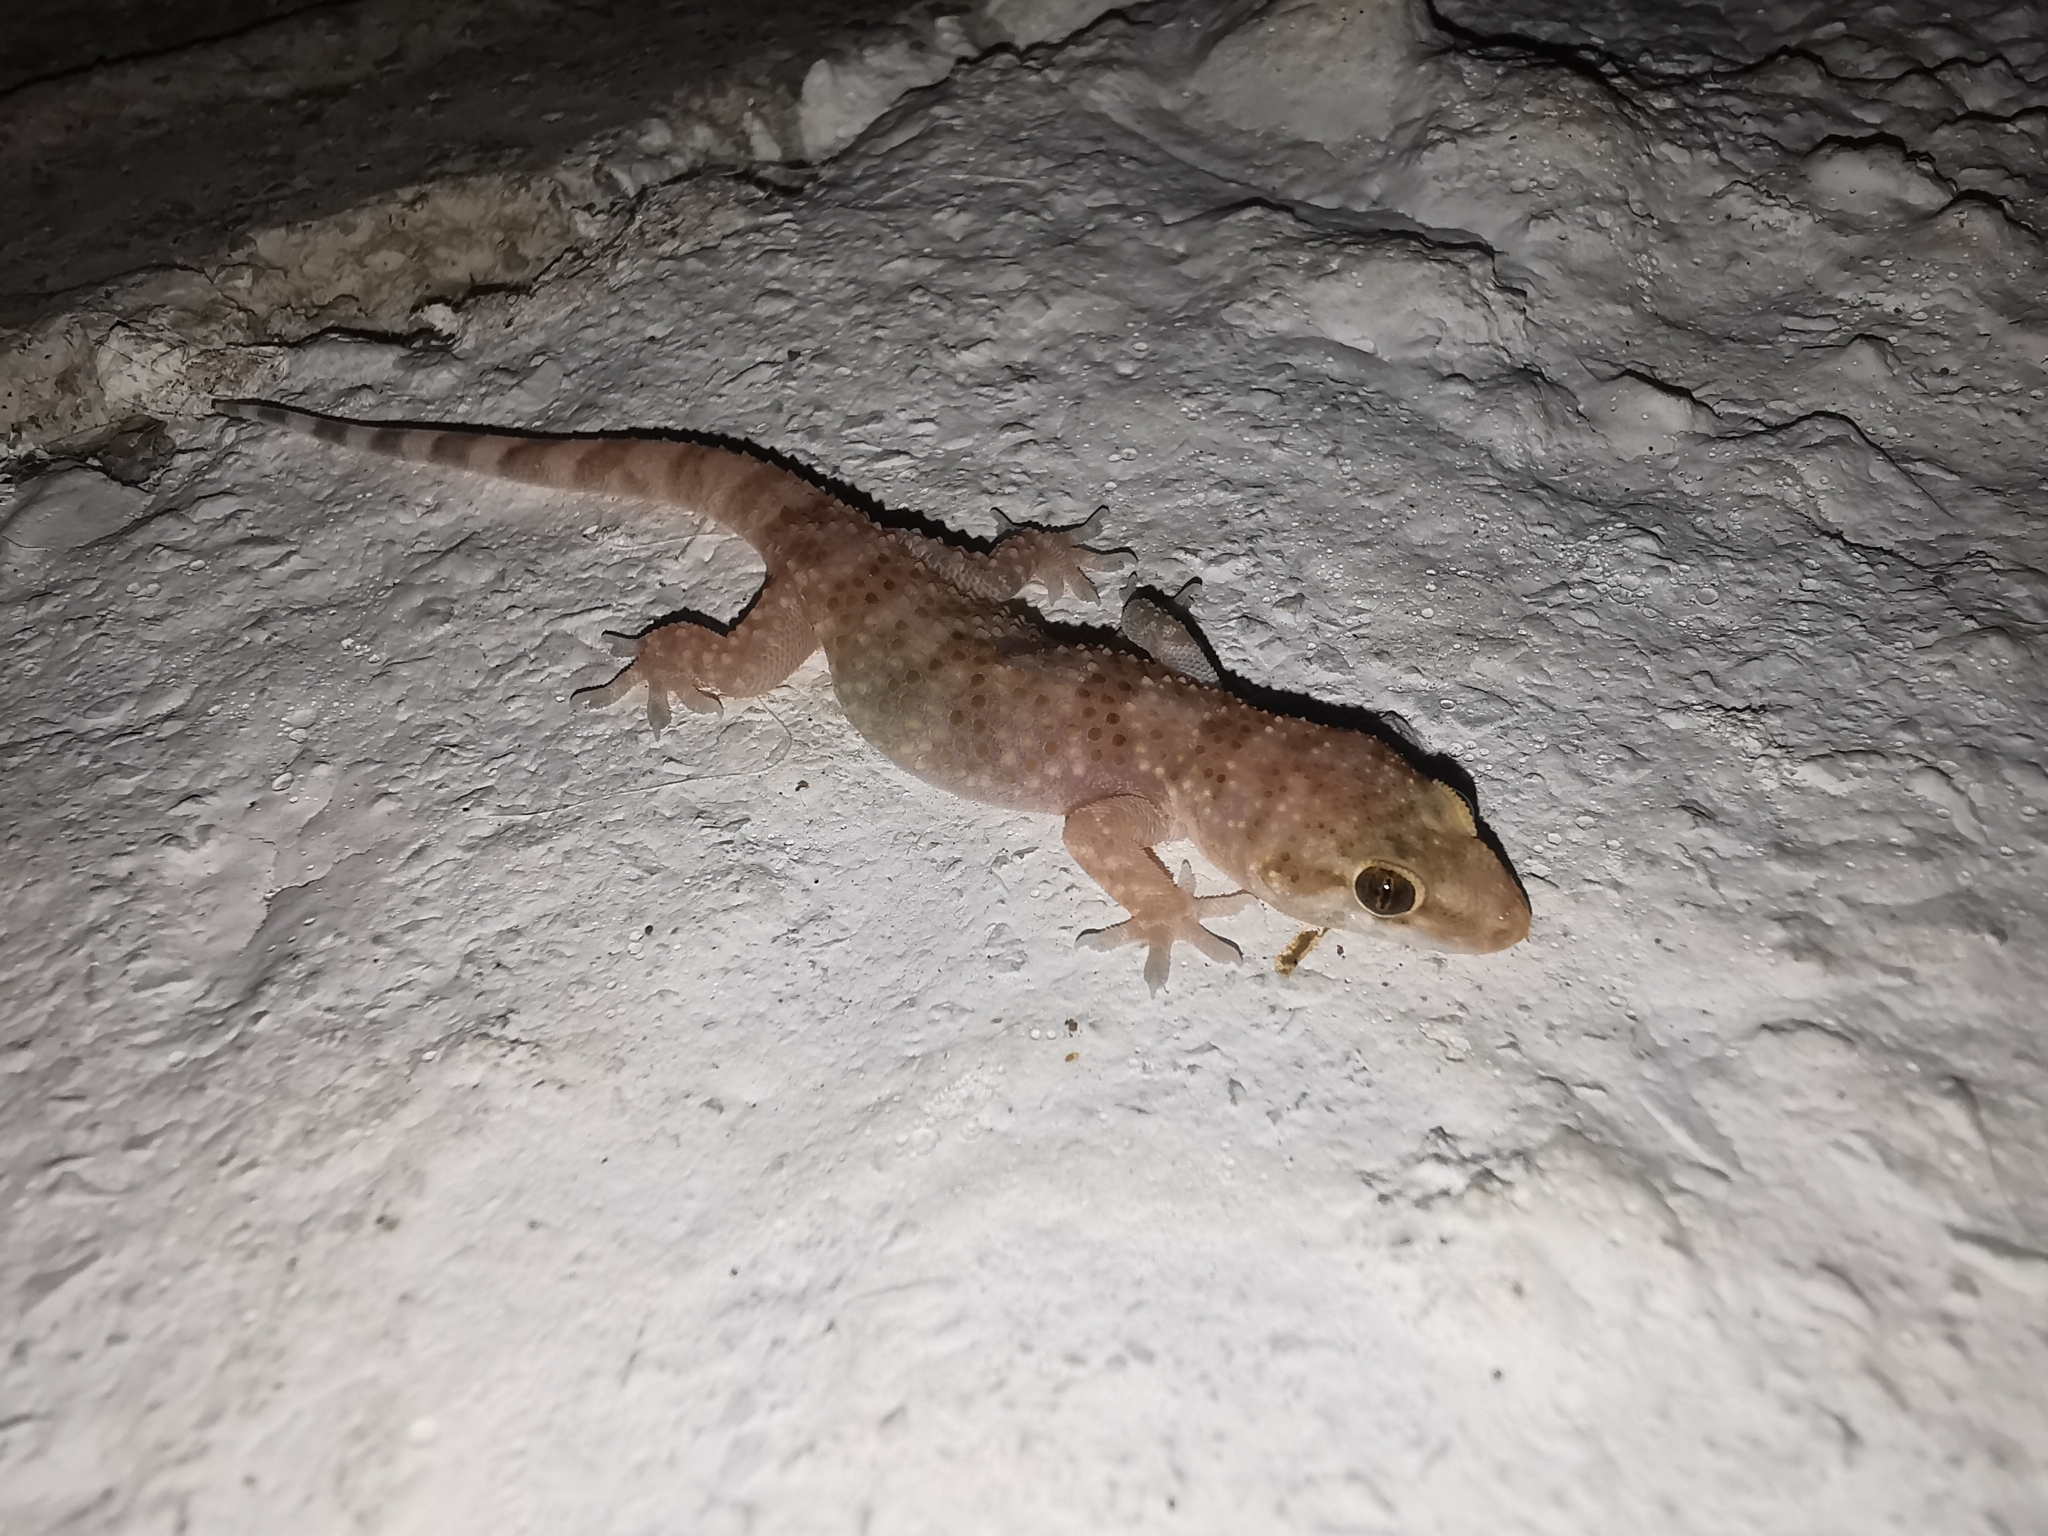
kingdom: Animalia
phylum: Chordata
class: Squamata
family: Gekkonidae
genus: Hemidactylus
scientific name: Hemidactylus turcicus
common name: Turkish gecko
